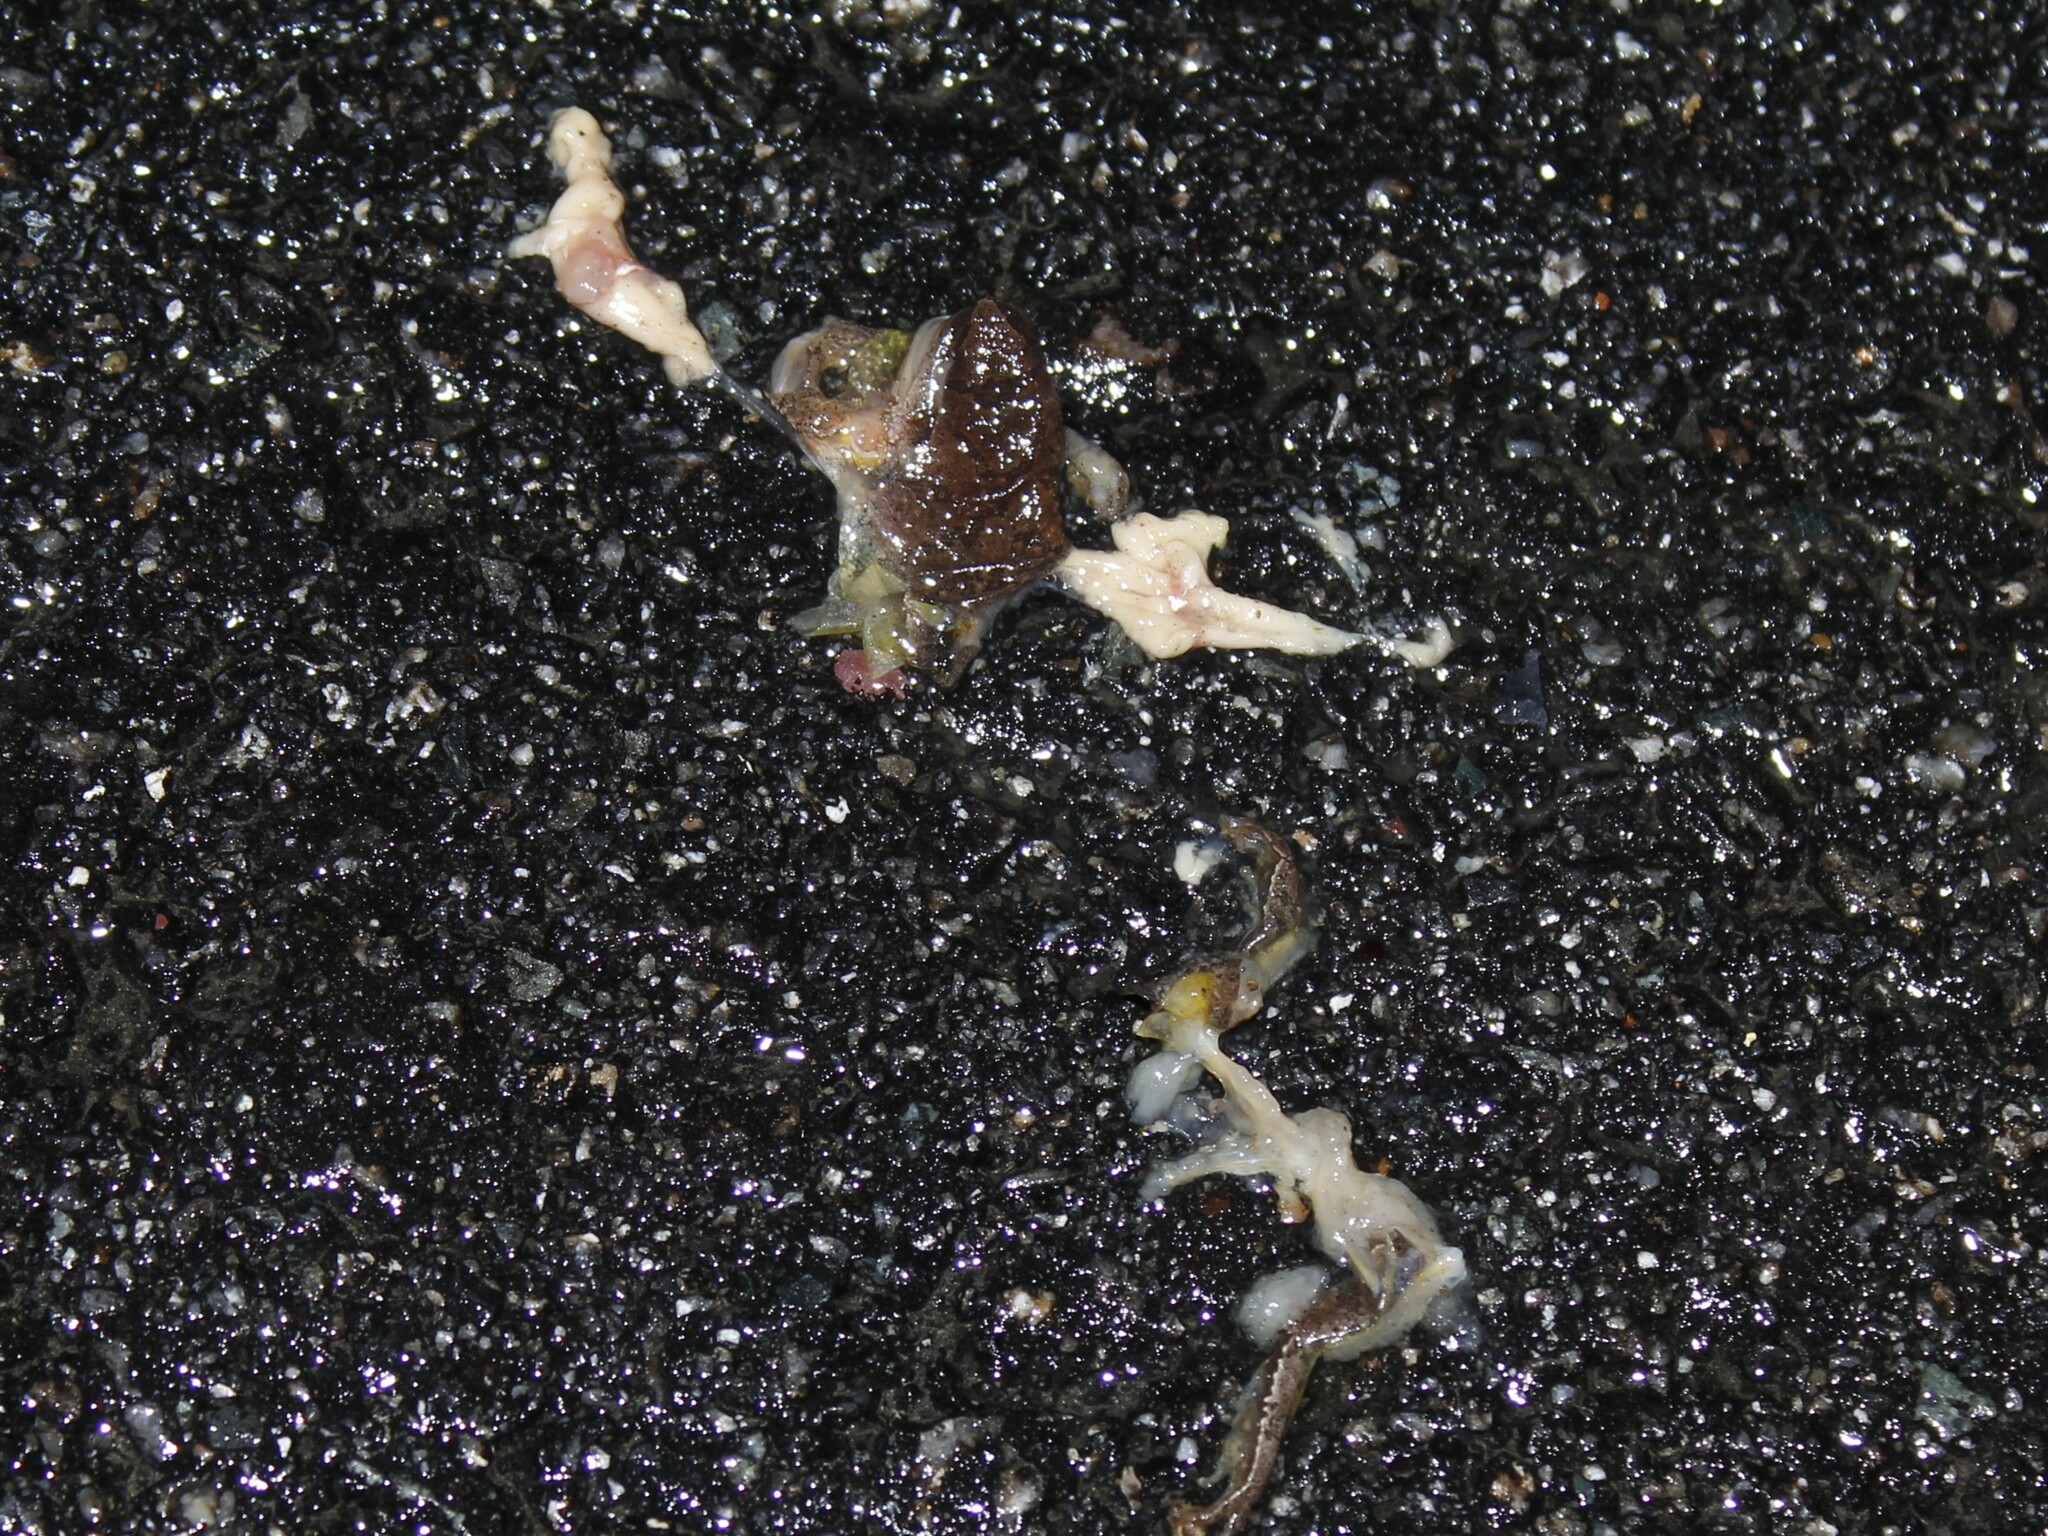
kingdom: Animalia
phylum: Chordata
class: Amphibia
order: Anura
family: Hylidae
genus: Pseudacris
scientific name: Pseudacris crucifer
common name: Spring peeper
